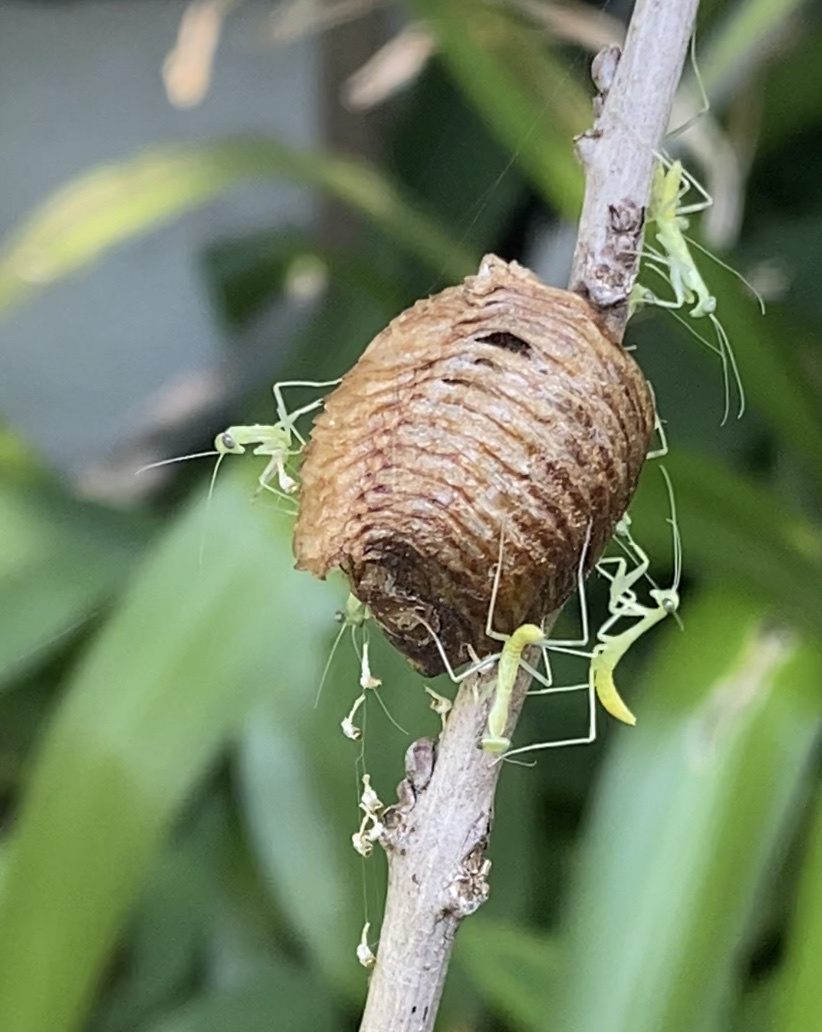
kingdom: Animalia
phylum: Arthropoda
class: Insecta
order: Mantodea
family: Mantidae
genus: Hierodula
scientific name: Hierodula transcaucasica
